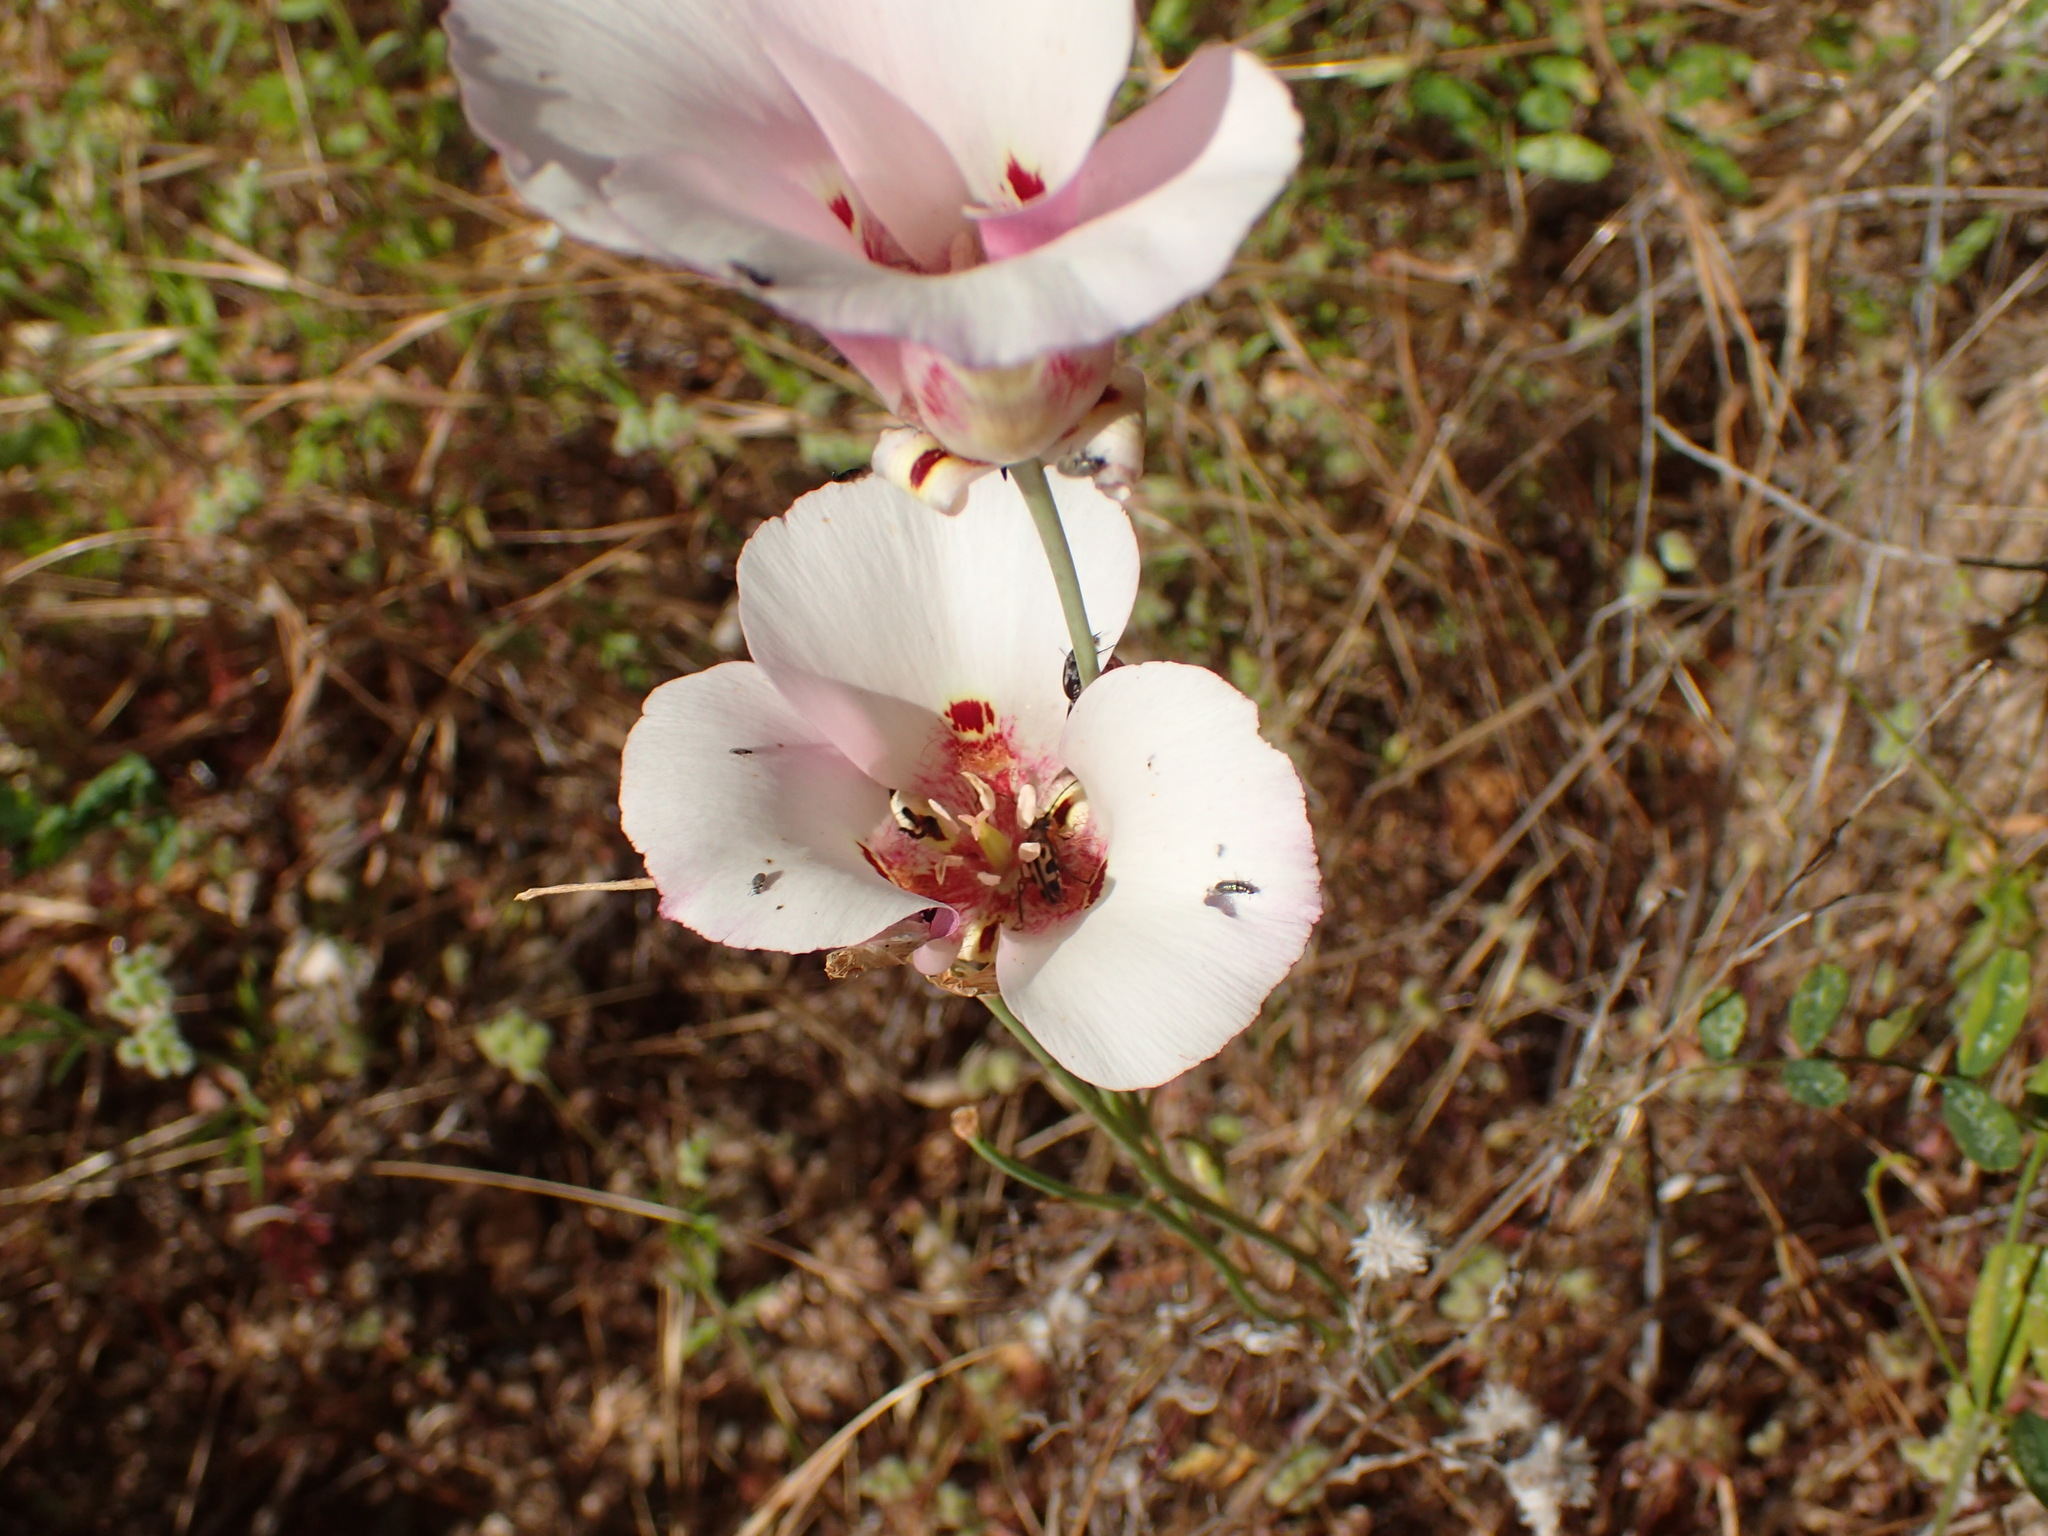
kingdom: Plantae
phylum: Tracheophyta
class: Liliopsida
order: Liliales
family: Liliaceae
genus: Calochortus
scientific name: Calochortus venustus
